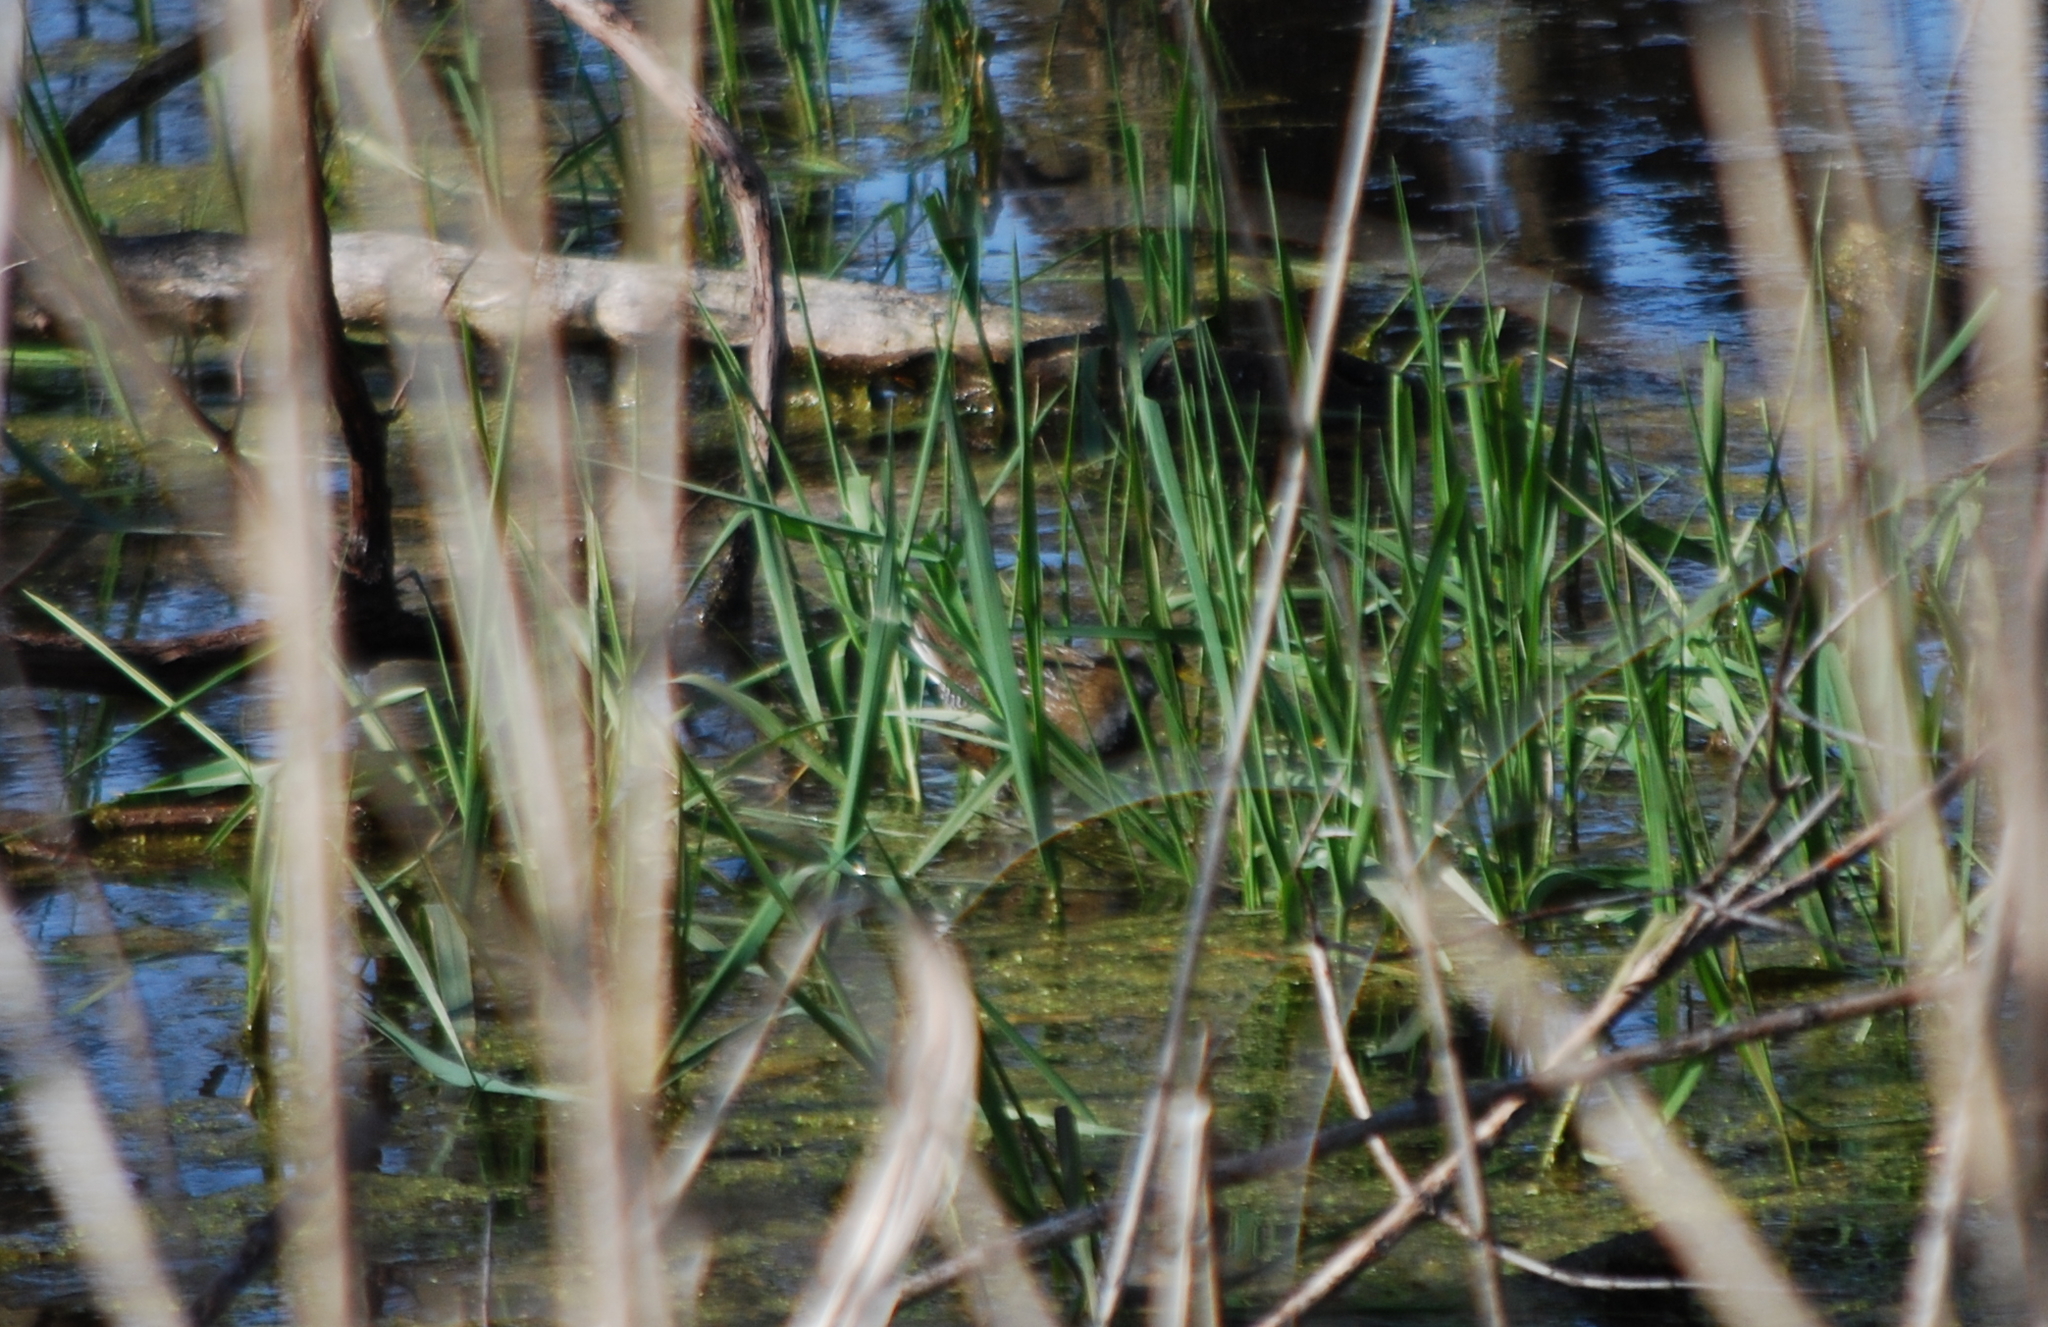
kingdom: Animalia
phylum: Chordata
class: Aves
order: Gruiformes
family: Rallidae
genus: Porzana
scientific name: Porzana carolina
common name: Sora
